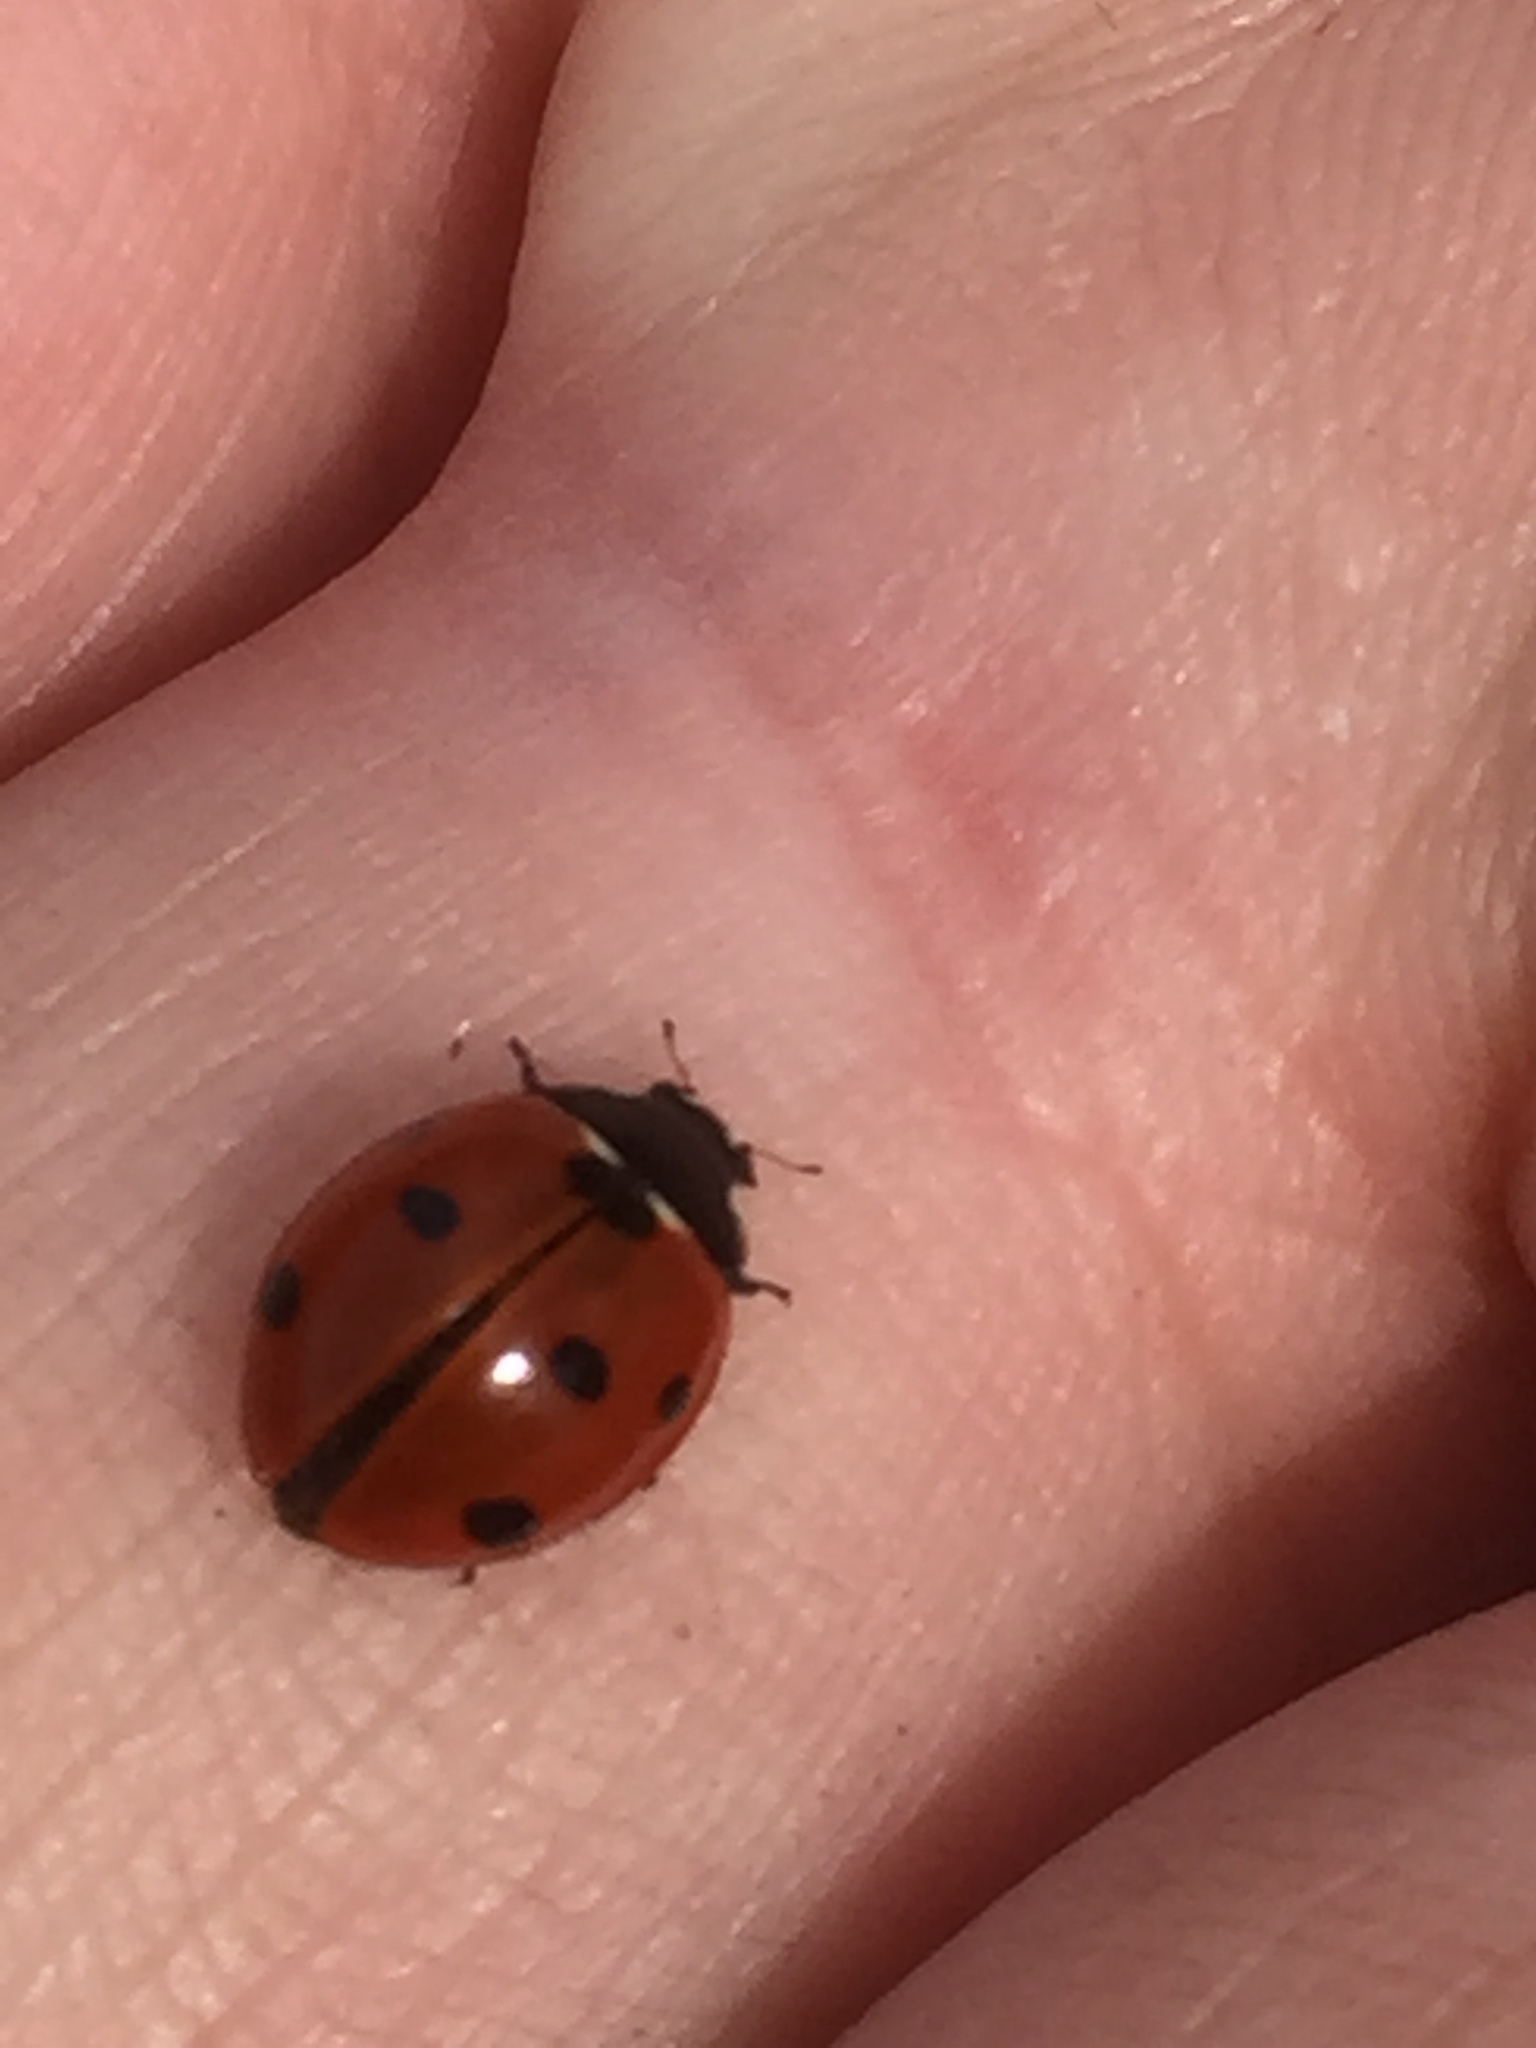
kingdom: Animalia
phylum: Arthropoda
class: Insecta
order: Coleoptera
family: Coccinellidae
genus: Coccinella
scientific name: Coccinella septempunctata
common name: Sevenspotted lady beetle
